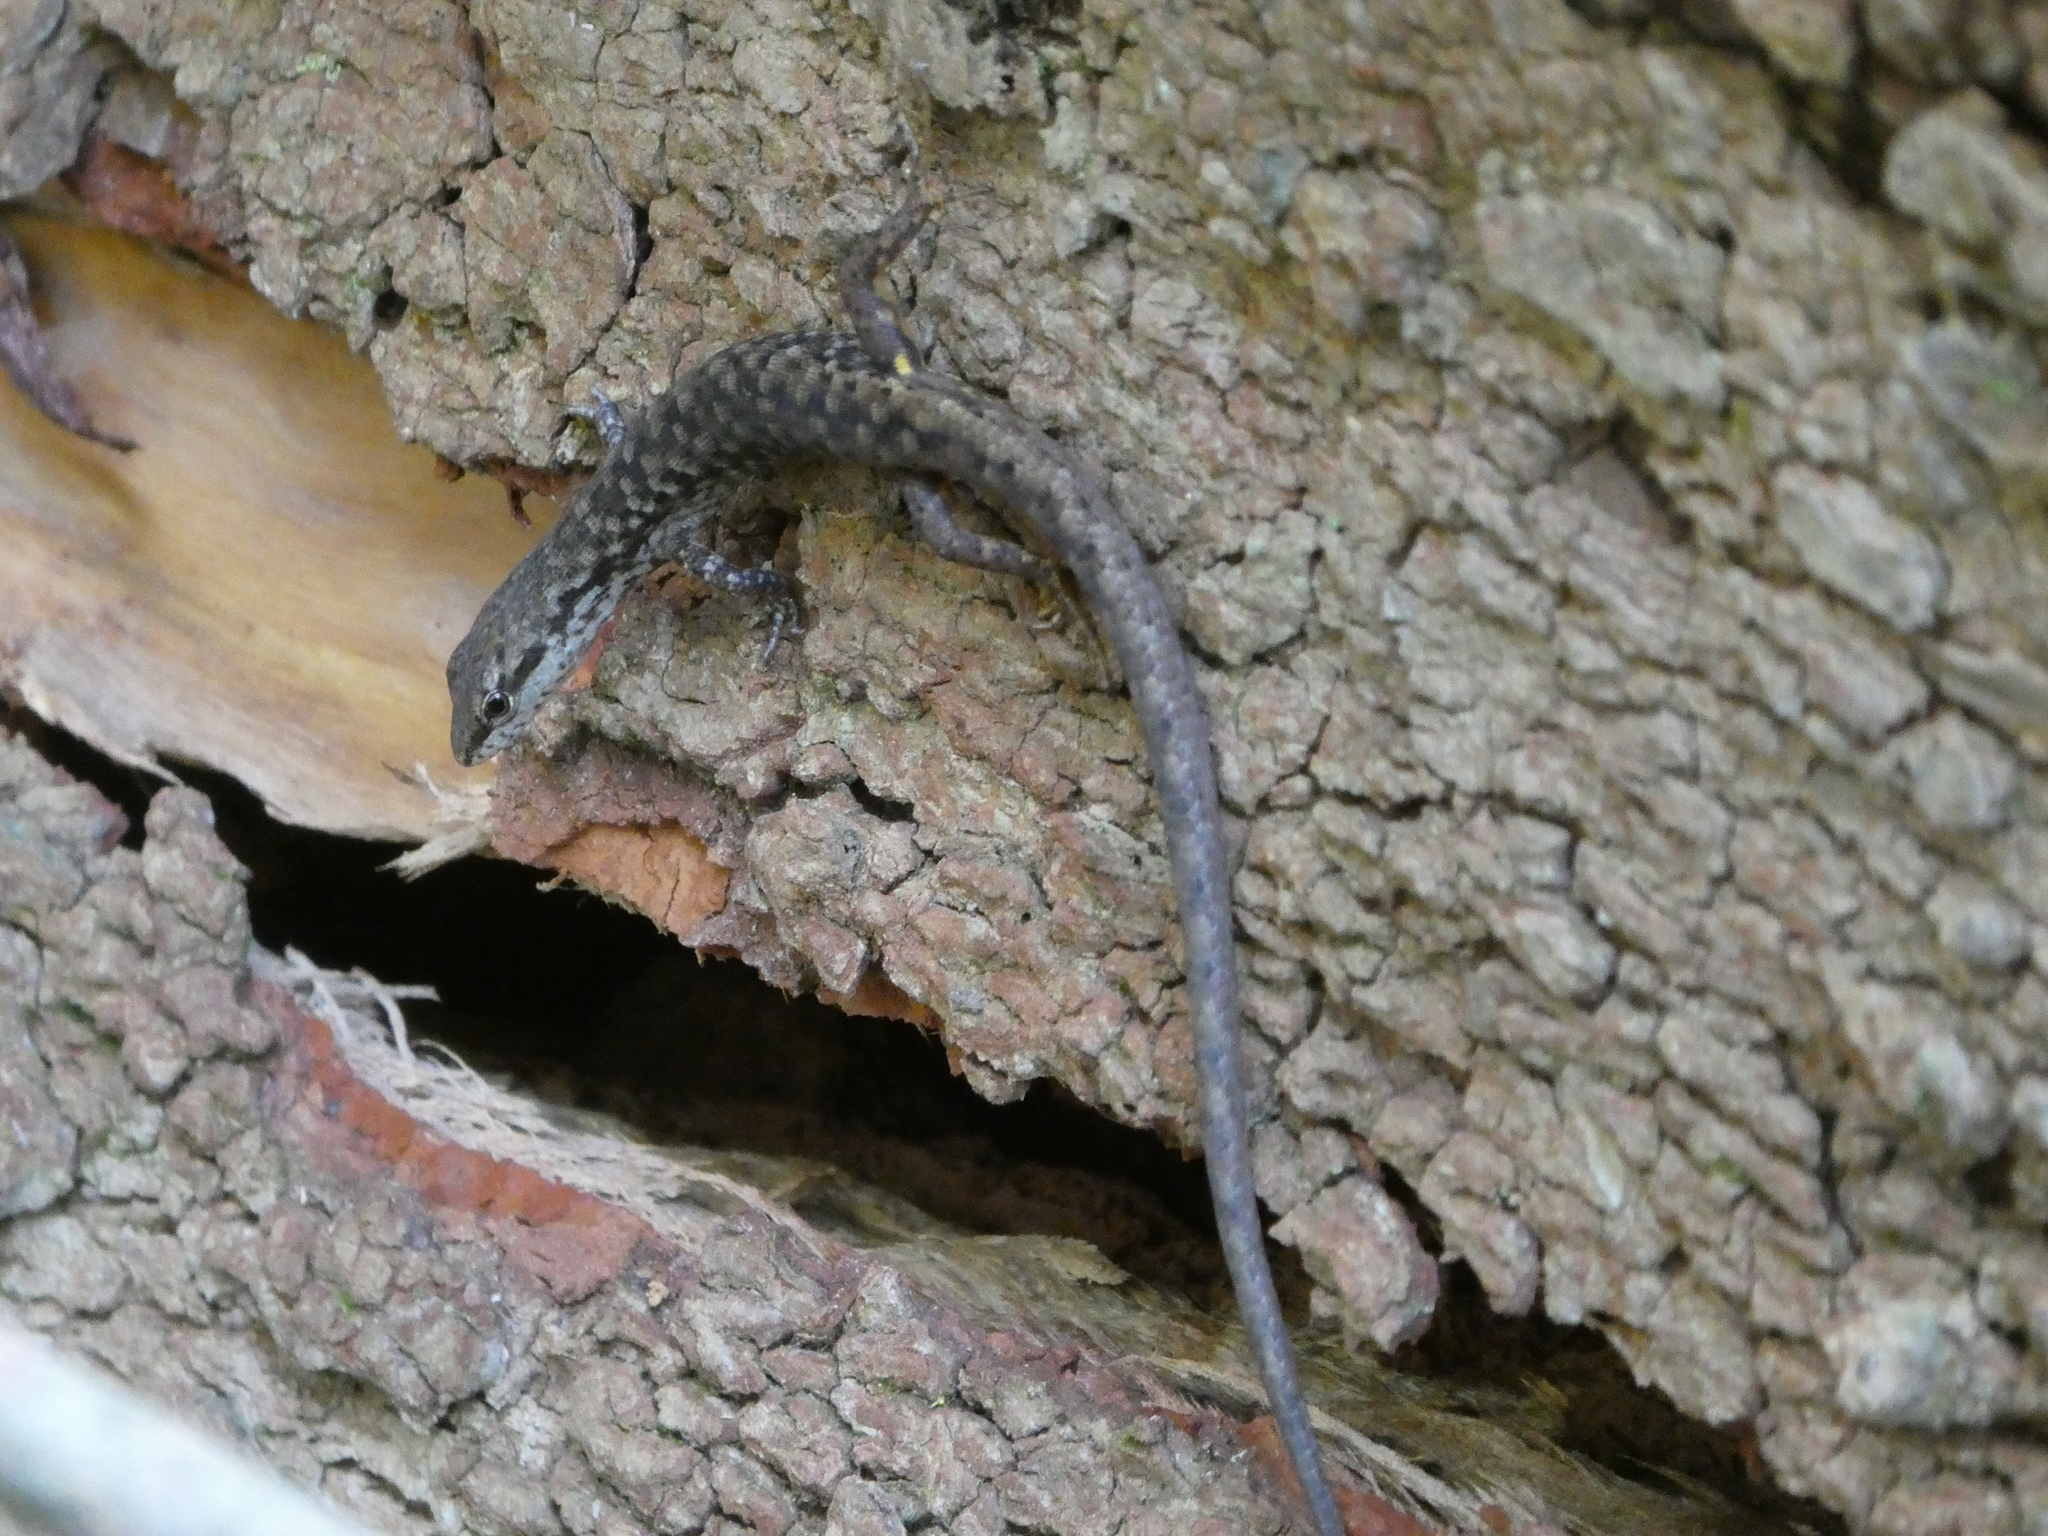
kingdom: Animalia
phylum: Chordata
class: Squamata
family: Scincidae
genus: Saproscincus
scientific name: Saproscincus spectabilis
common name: Gully shadeskink
